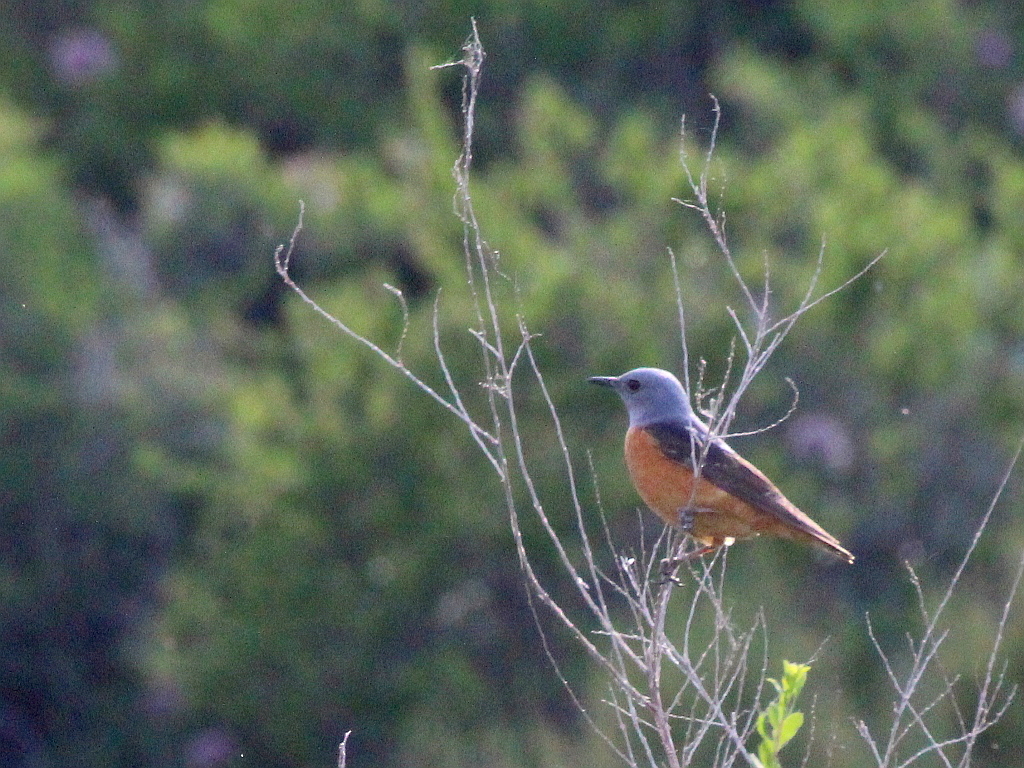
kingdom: Animalia
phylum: Chordata
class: Aves
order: Passeriformes
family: Muscicapidae
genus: Monticola
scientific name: Monticola saxatilis
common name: Rufous-tailed rock thrush
